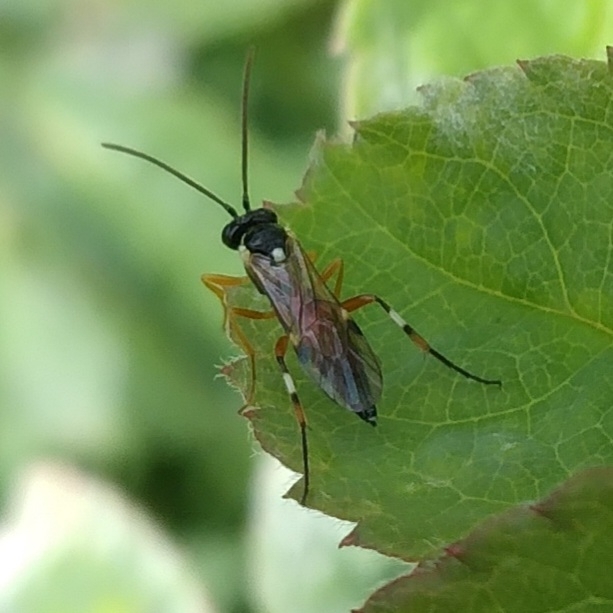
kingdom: Animalia
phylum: Arthropoda
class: Insecta
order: Hymenoptera
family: Ichneumonidae
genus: Diplazon
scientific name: Diplazon laetatorius
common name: Parasitoid wasp
